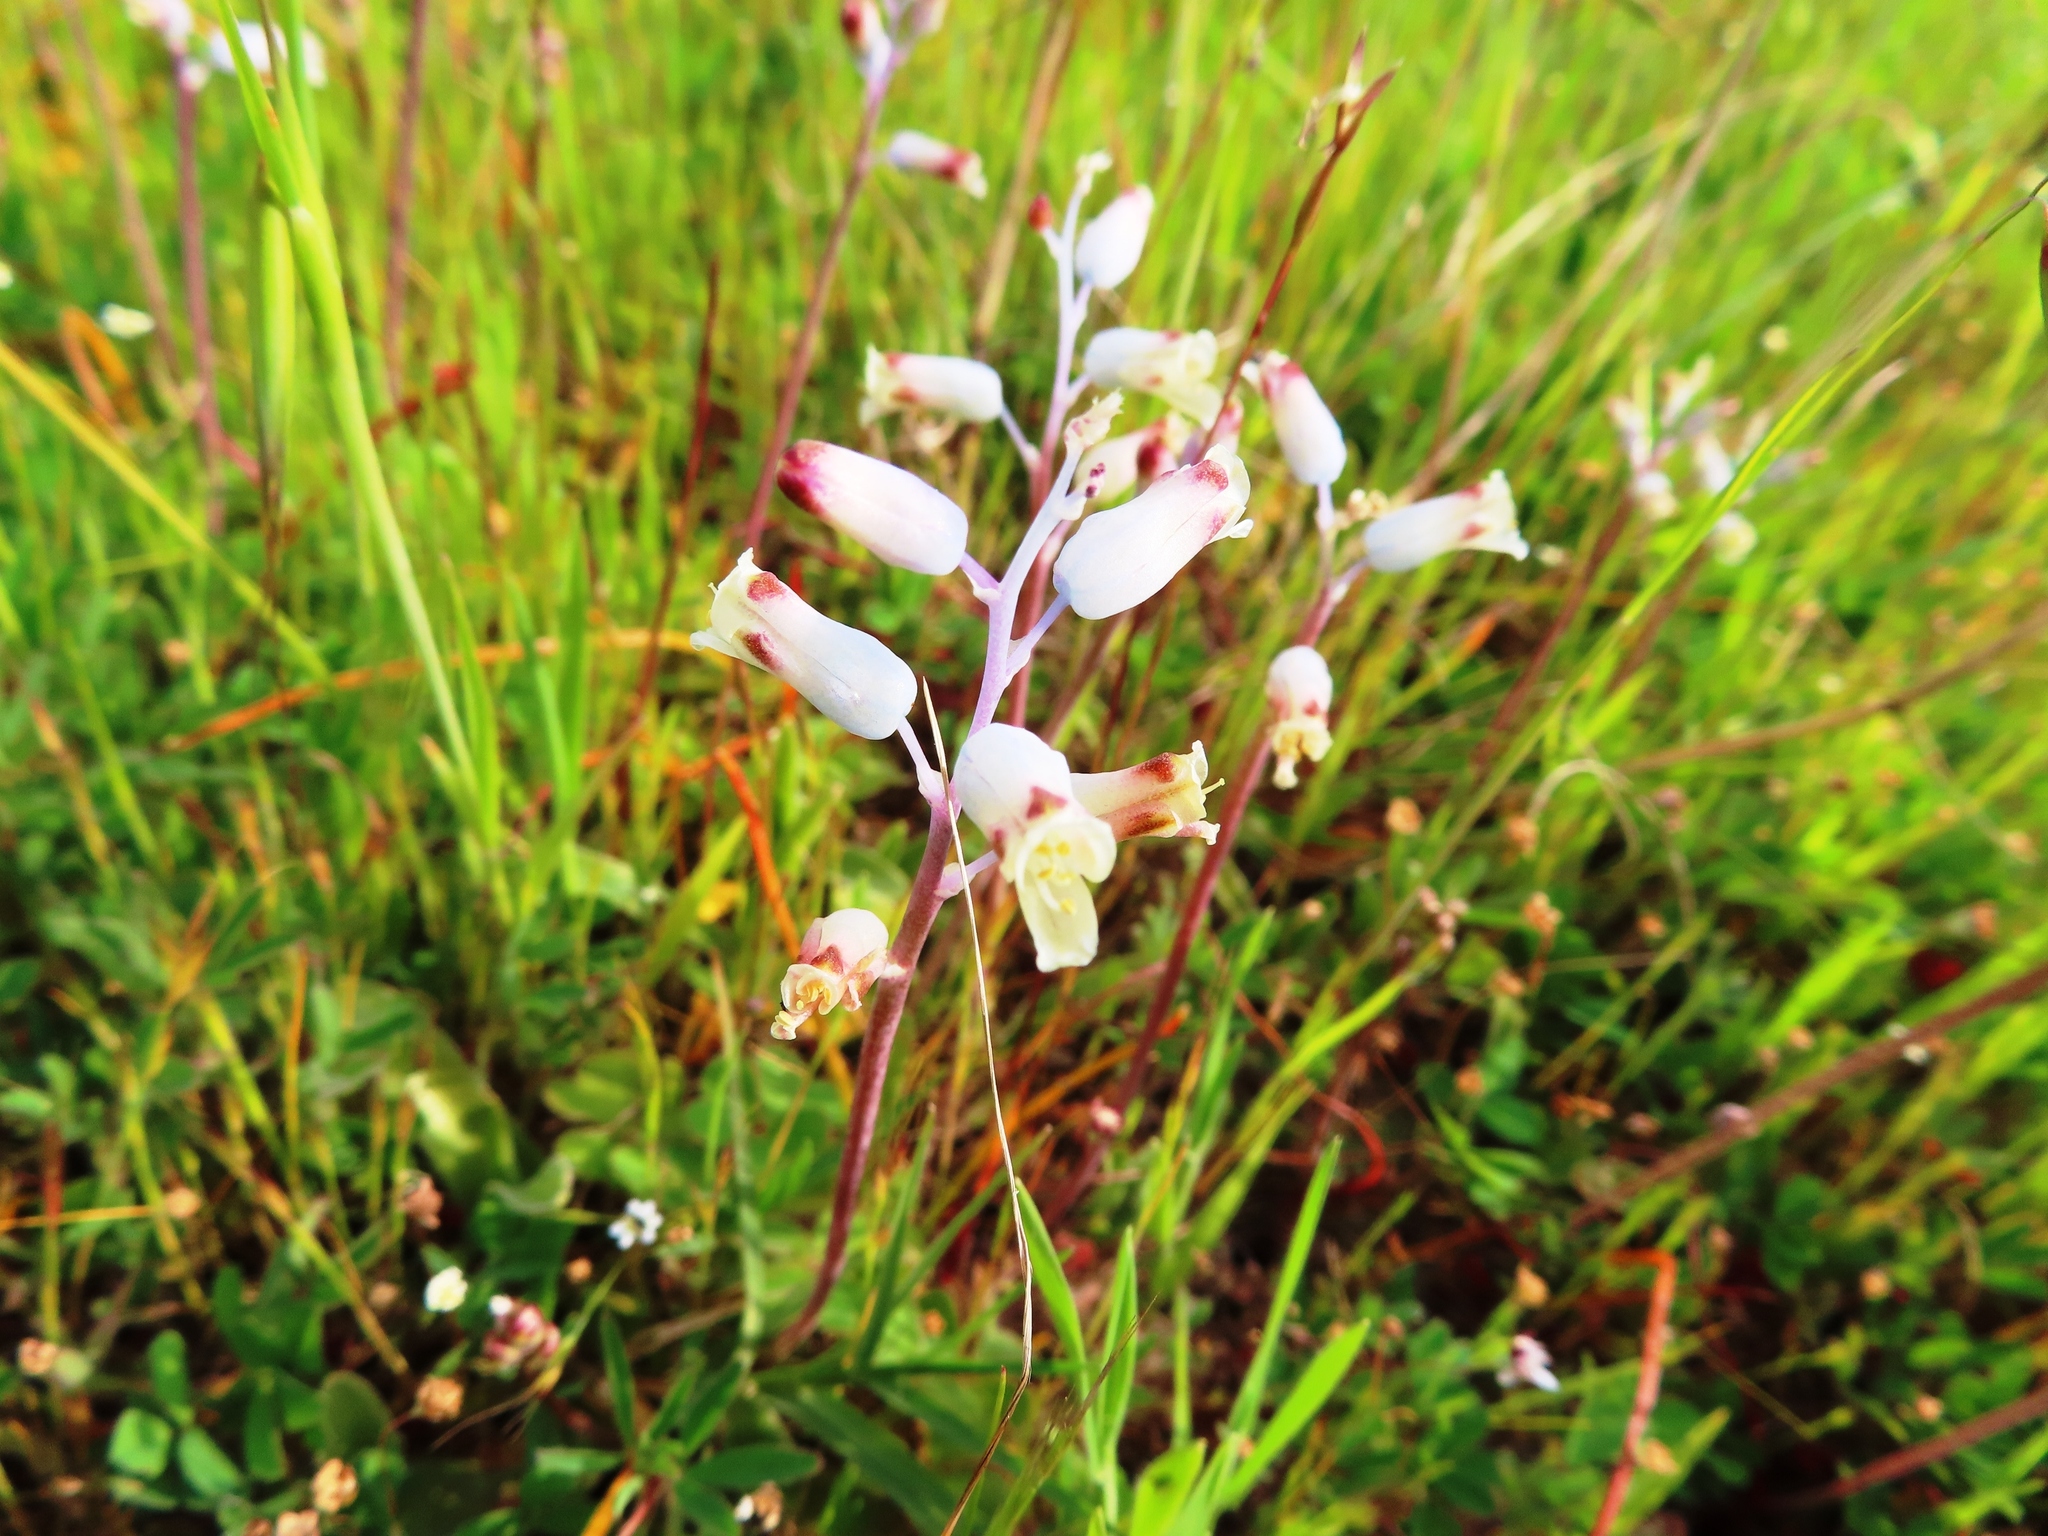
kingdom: Plantae
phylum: Tracheophyta
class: Liliopsida
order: Asparagales
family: Asparagaceae
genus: Lachenalia
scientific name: Lachenalia unifolia
